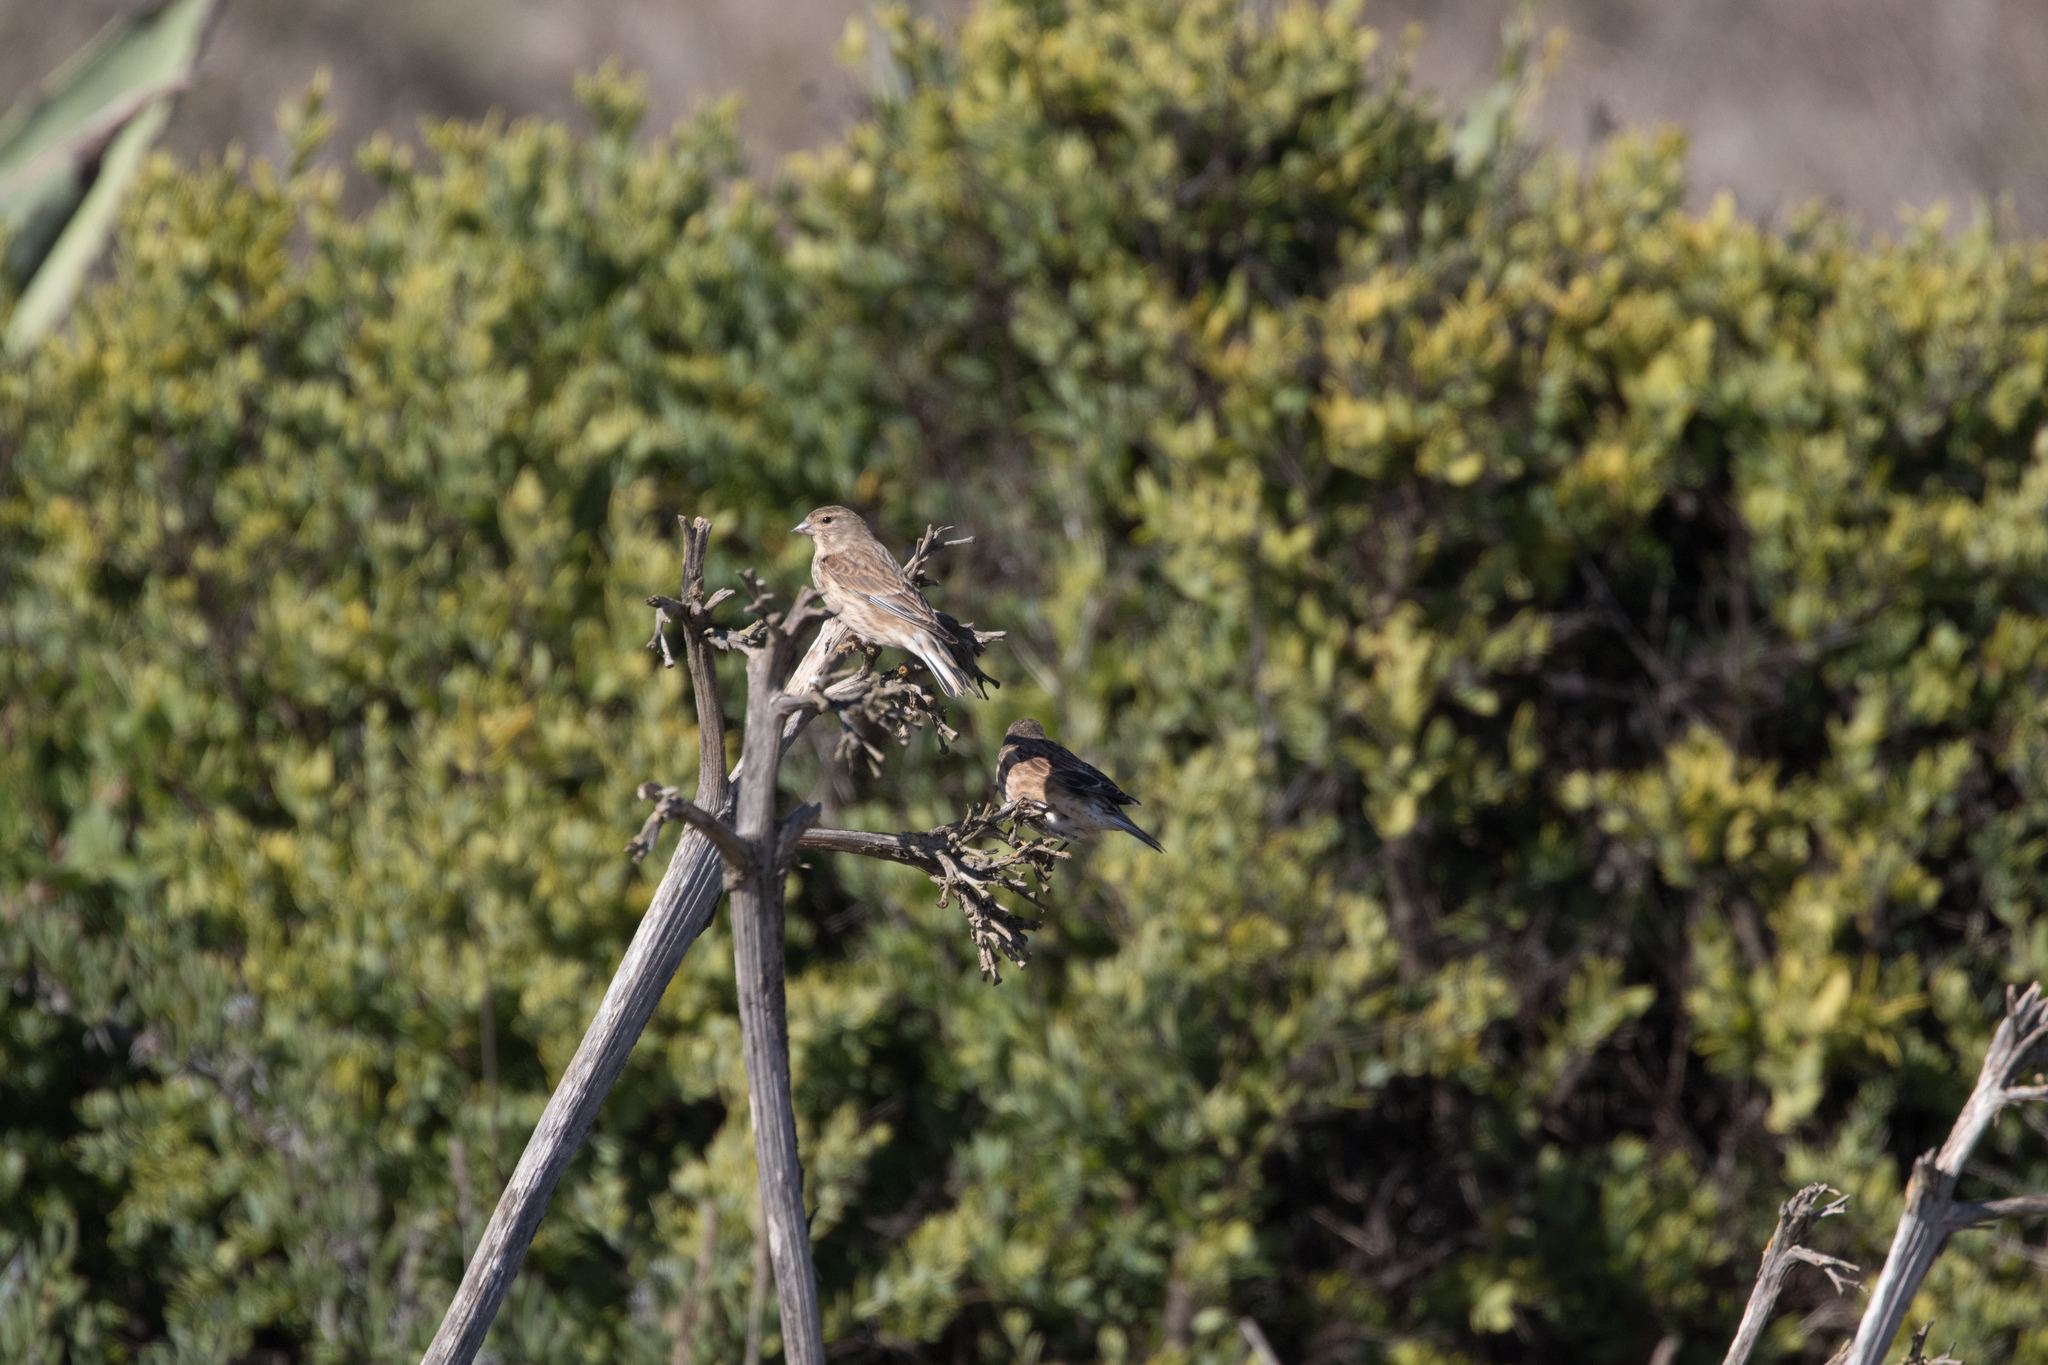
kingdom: Animalia
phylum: Chordata
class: Aves
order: Passeriformes
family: Fringillidae
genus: Linaria
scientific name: Linaria cannabina
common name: Common linnet
